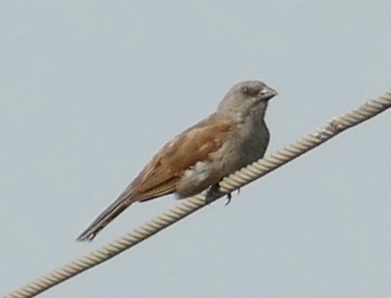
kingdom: Animalia
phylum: Chordata
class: Aves
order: Passeriformes
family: Passeridae
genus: Passer
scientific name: Passer griseus
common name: Northern grey-headed sparrow
